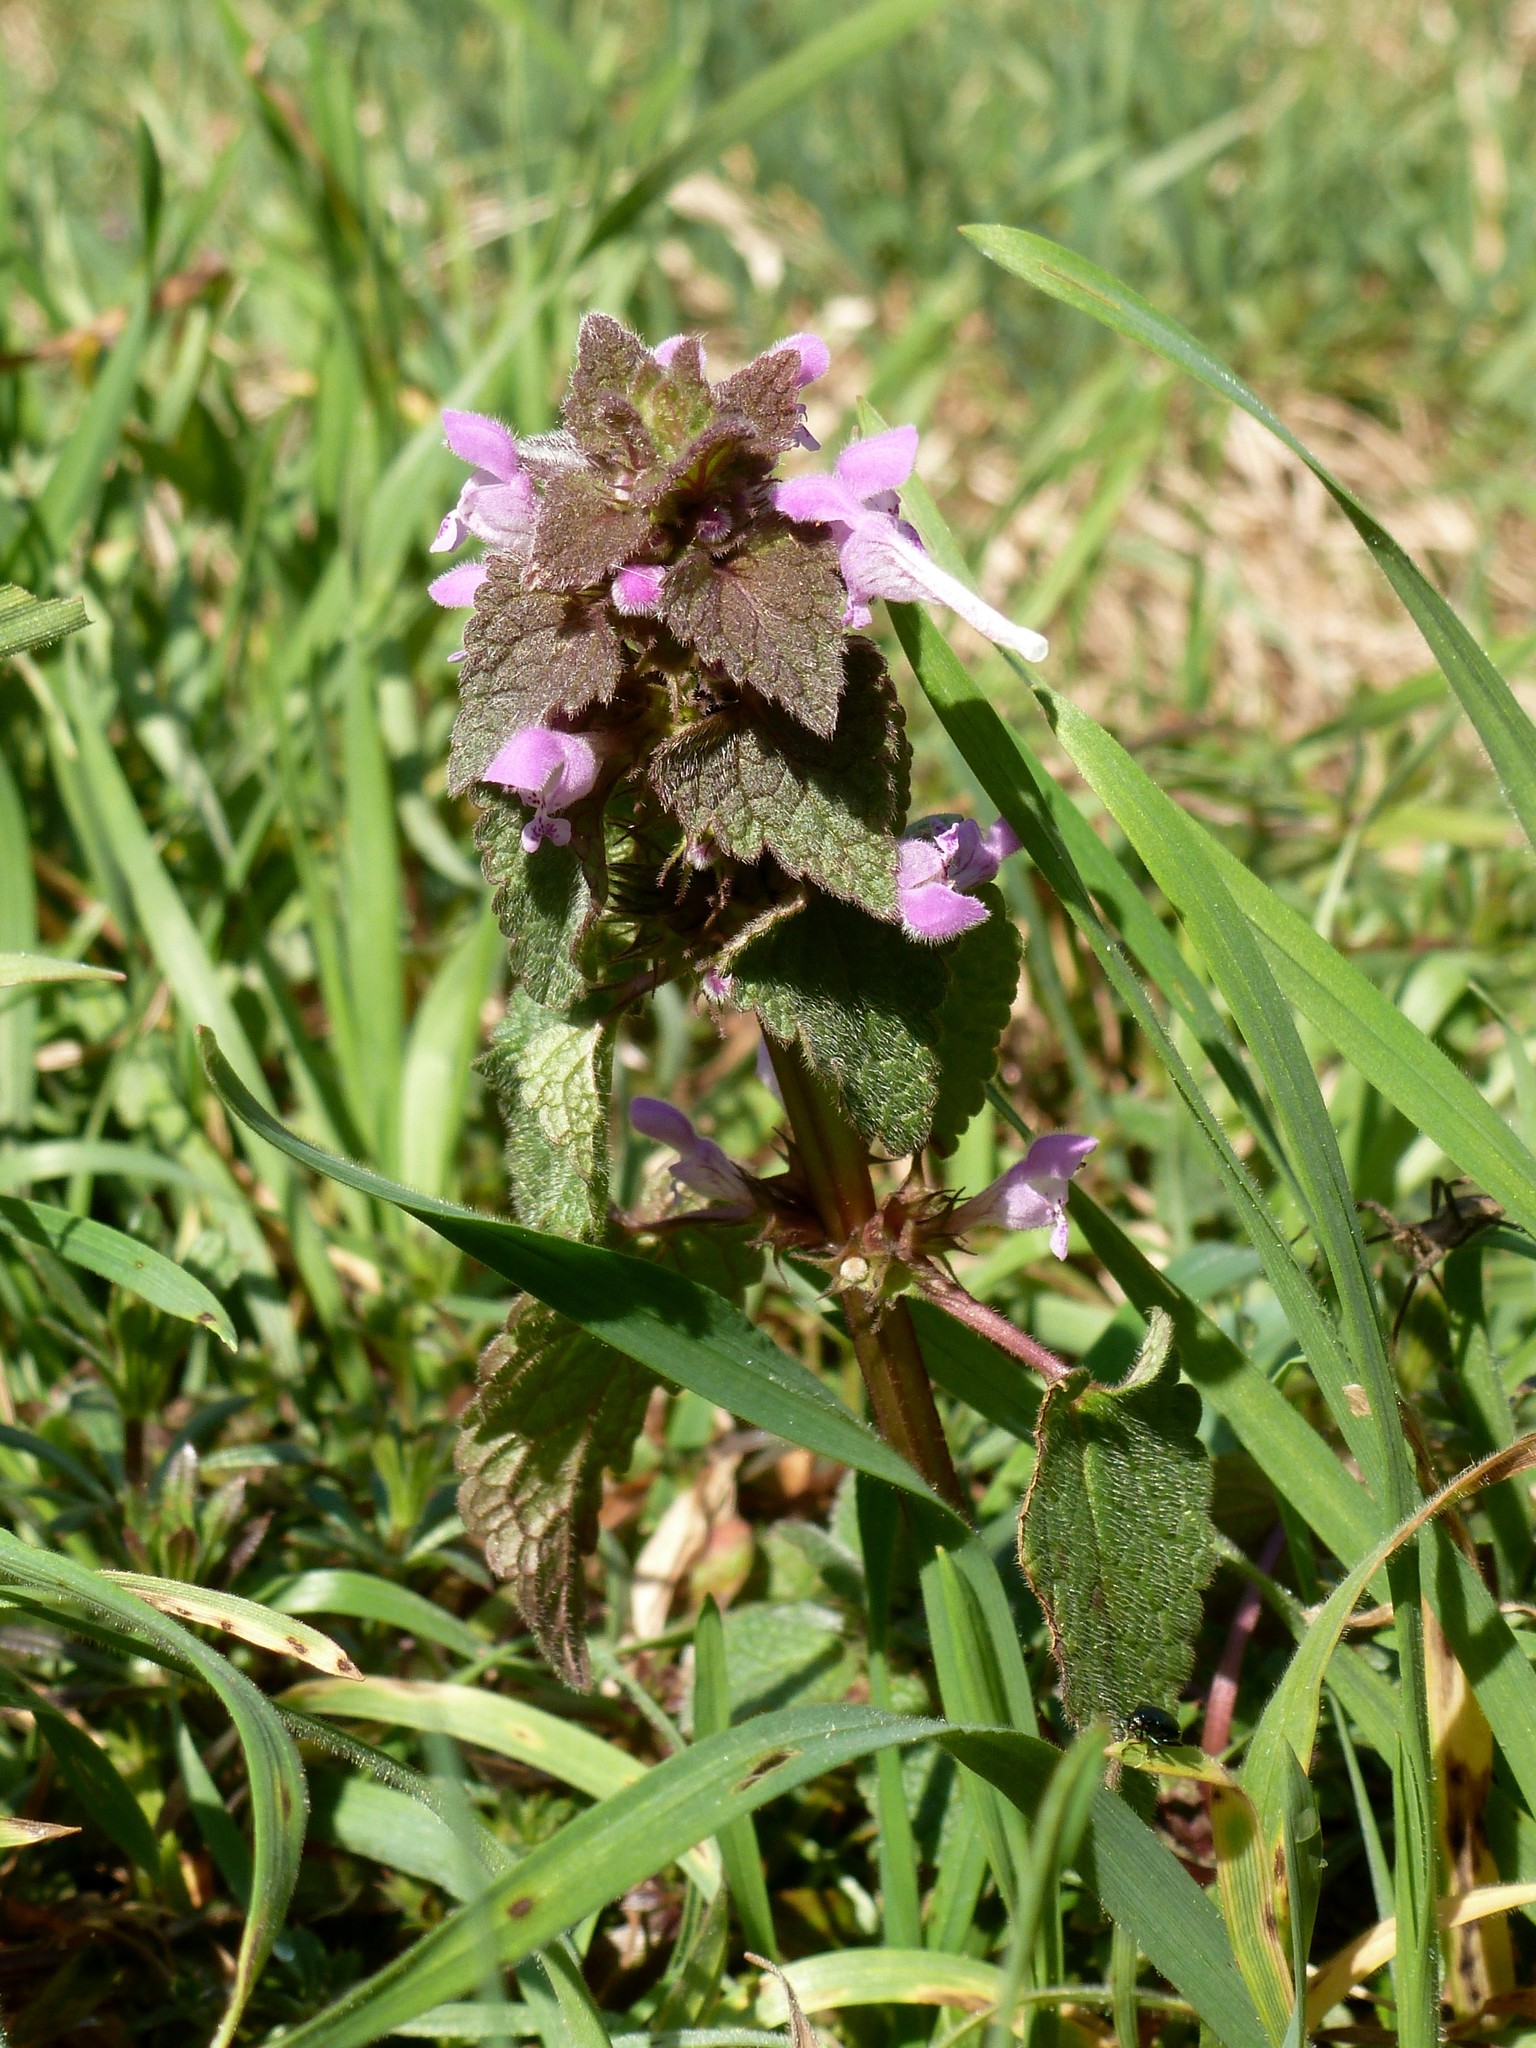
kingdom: Plantae
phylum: Tracheophyta
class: Magnoliopsida
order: Lamiales
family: Lamiaceae
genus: Lamium
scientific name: Lamium purpureum
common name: Red dead-nettle
